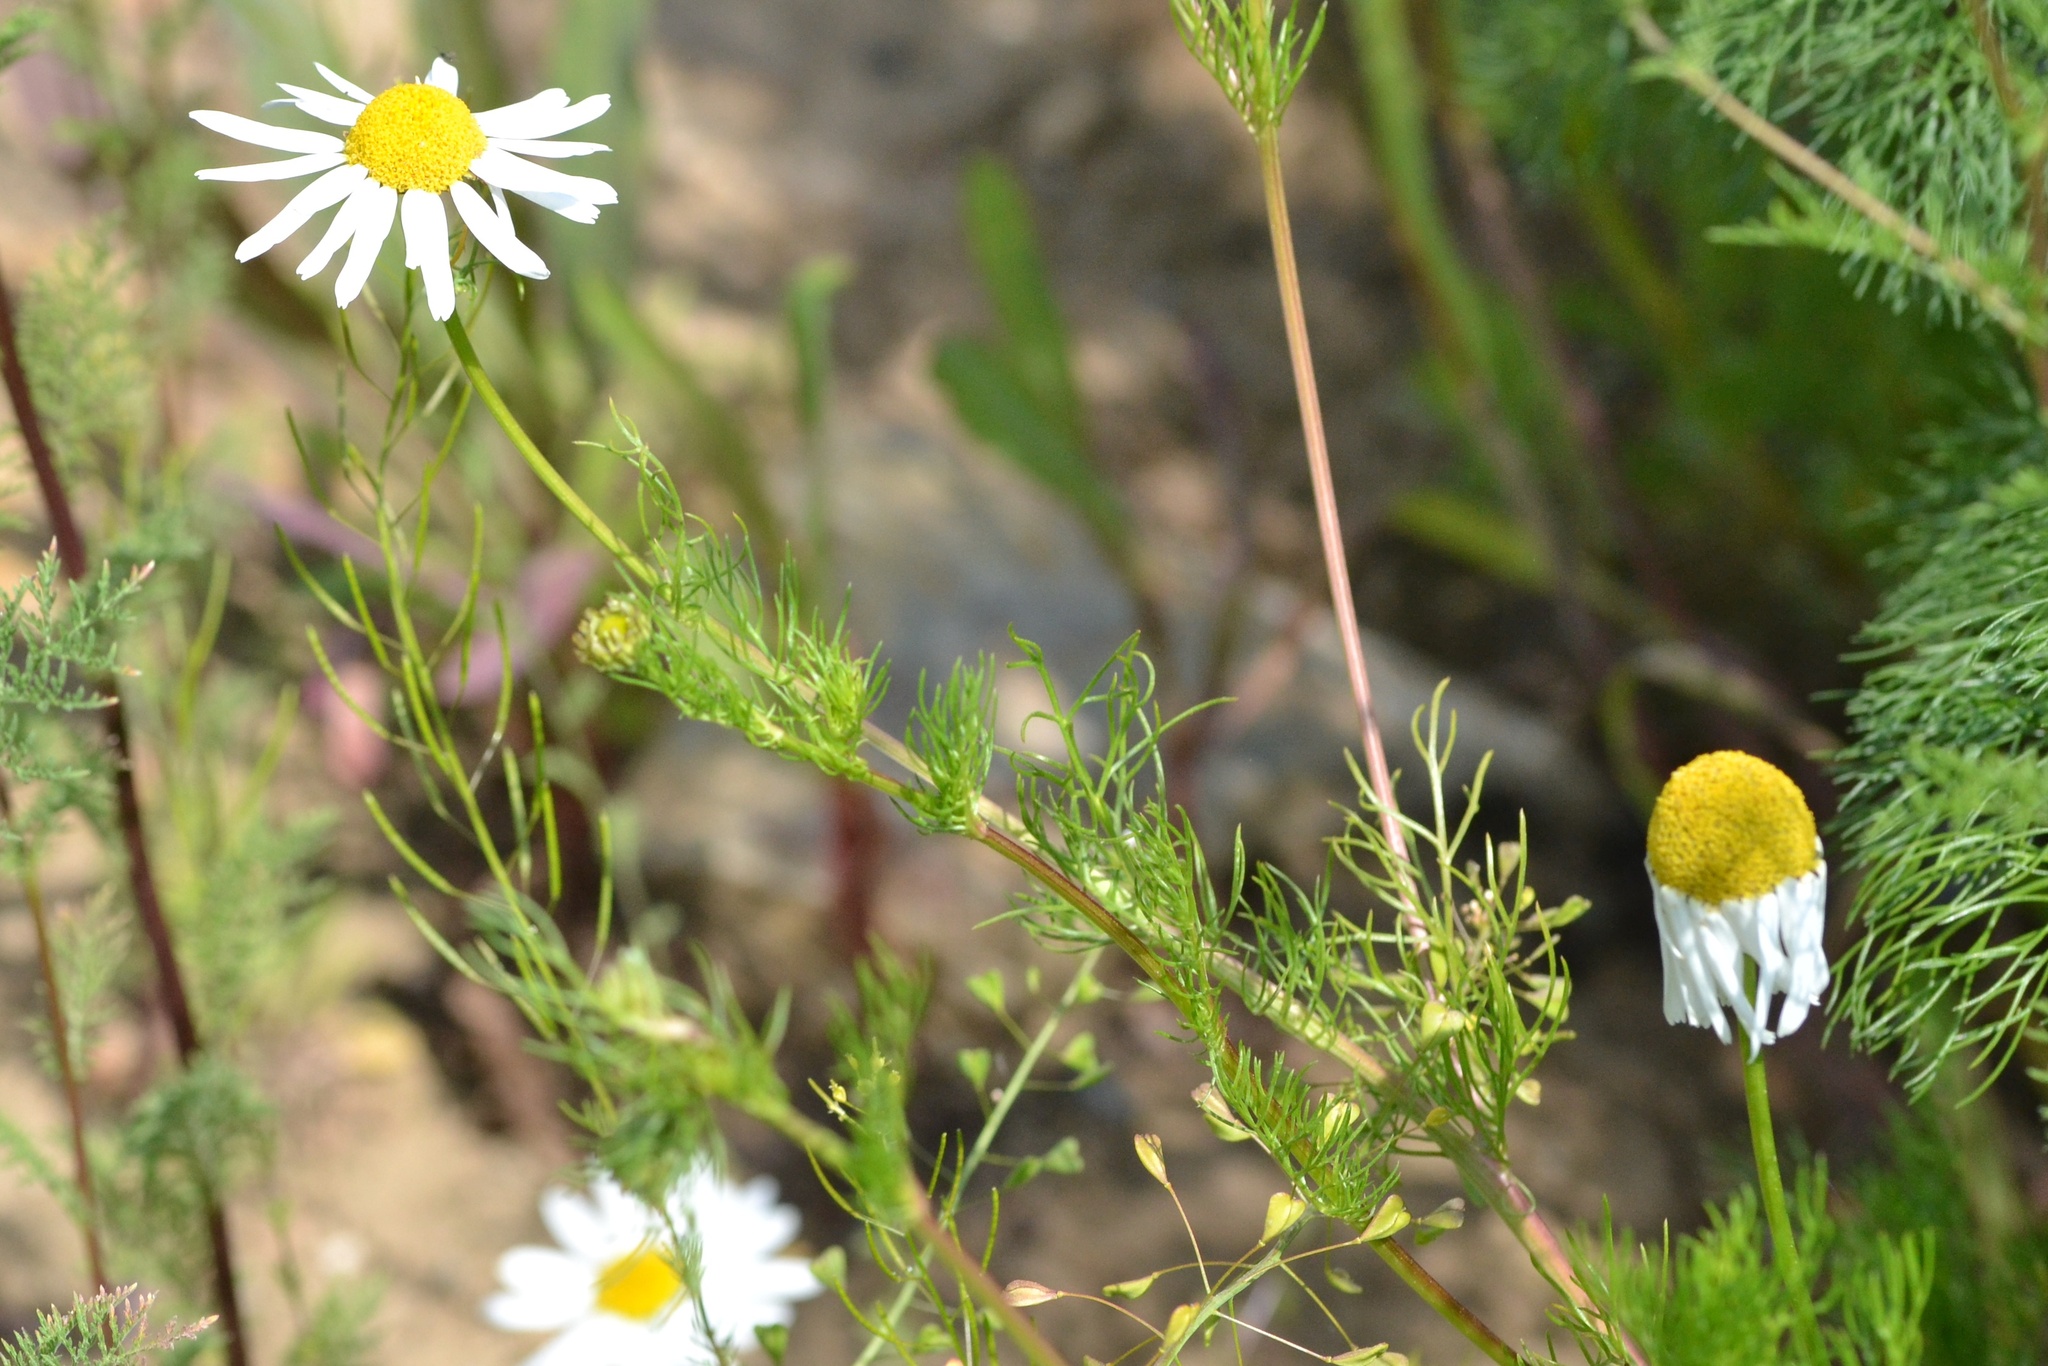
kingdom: Plantae
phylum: Tracheophyta
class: Magnoliopsida
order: Asterales
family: Asteraceae
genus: Tripleurospermum
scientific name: Tripleurospermum inodorum
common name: Scentless mayweed
